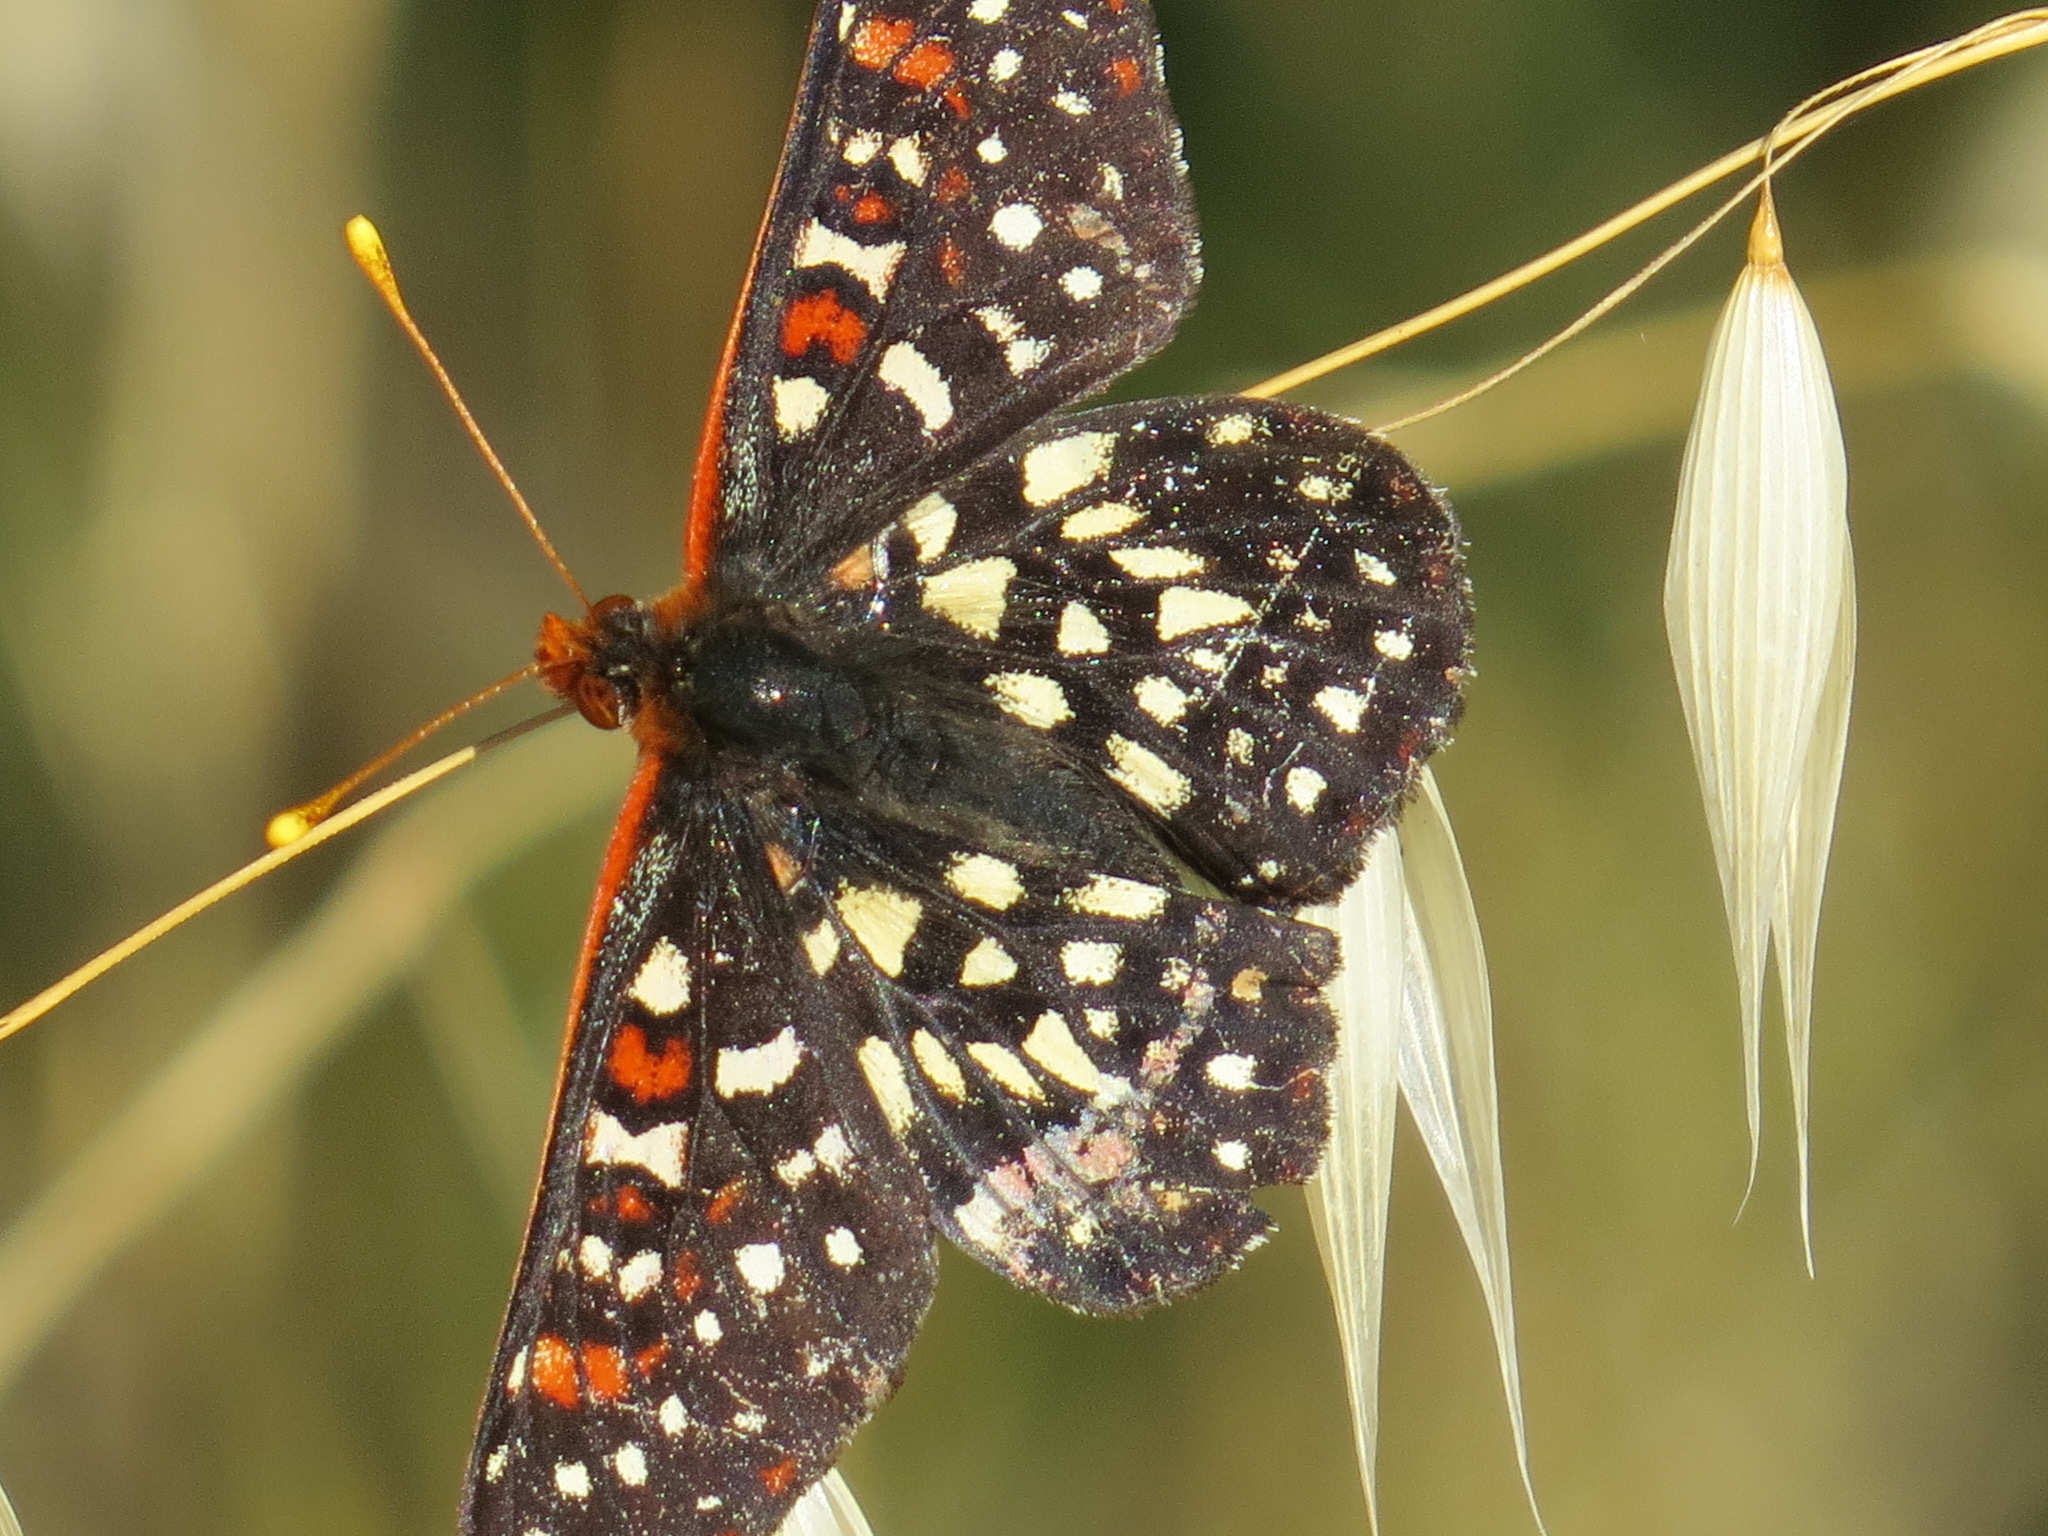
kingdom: Animalia
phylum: Arthropoda
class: Insecta
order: Lepidoptera
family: Nymphalidae
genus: Occidryas
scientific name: Occidryas chalcedona
